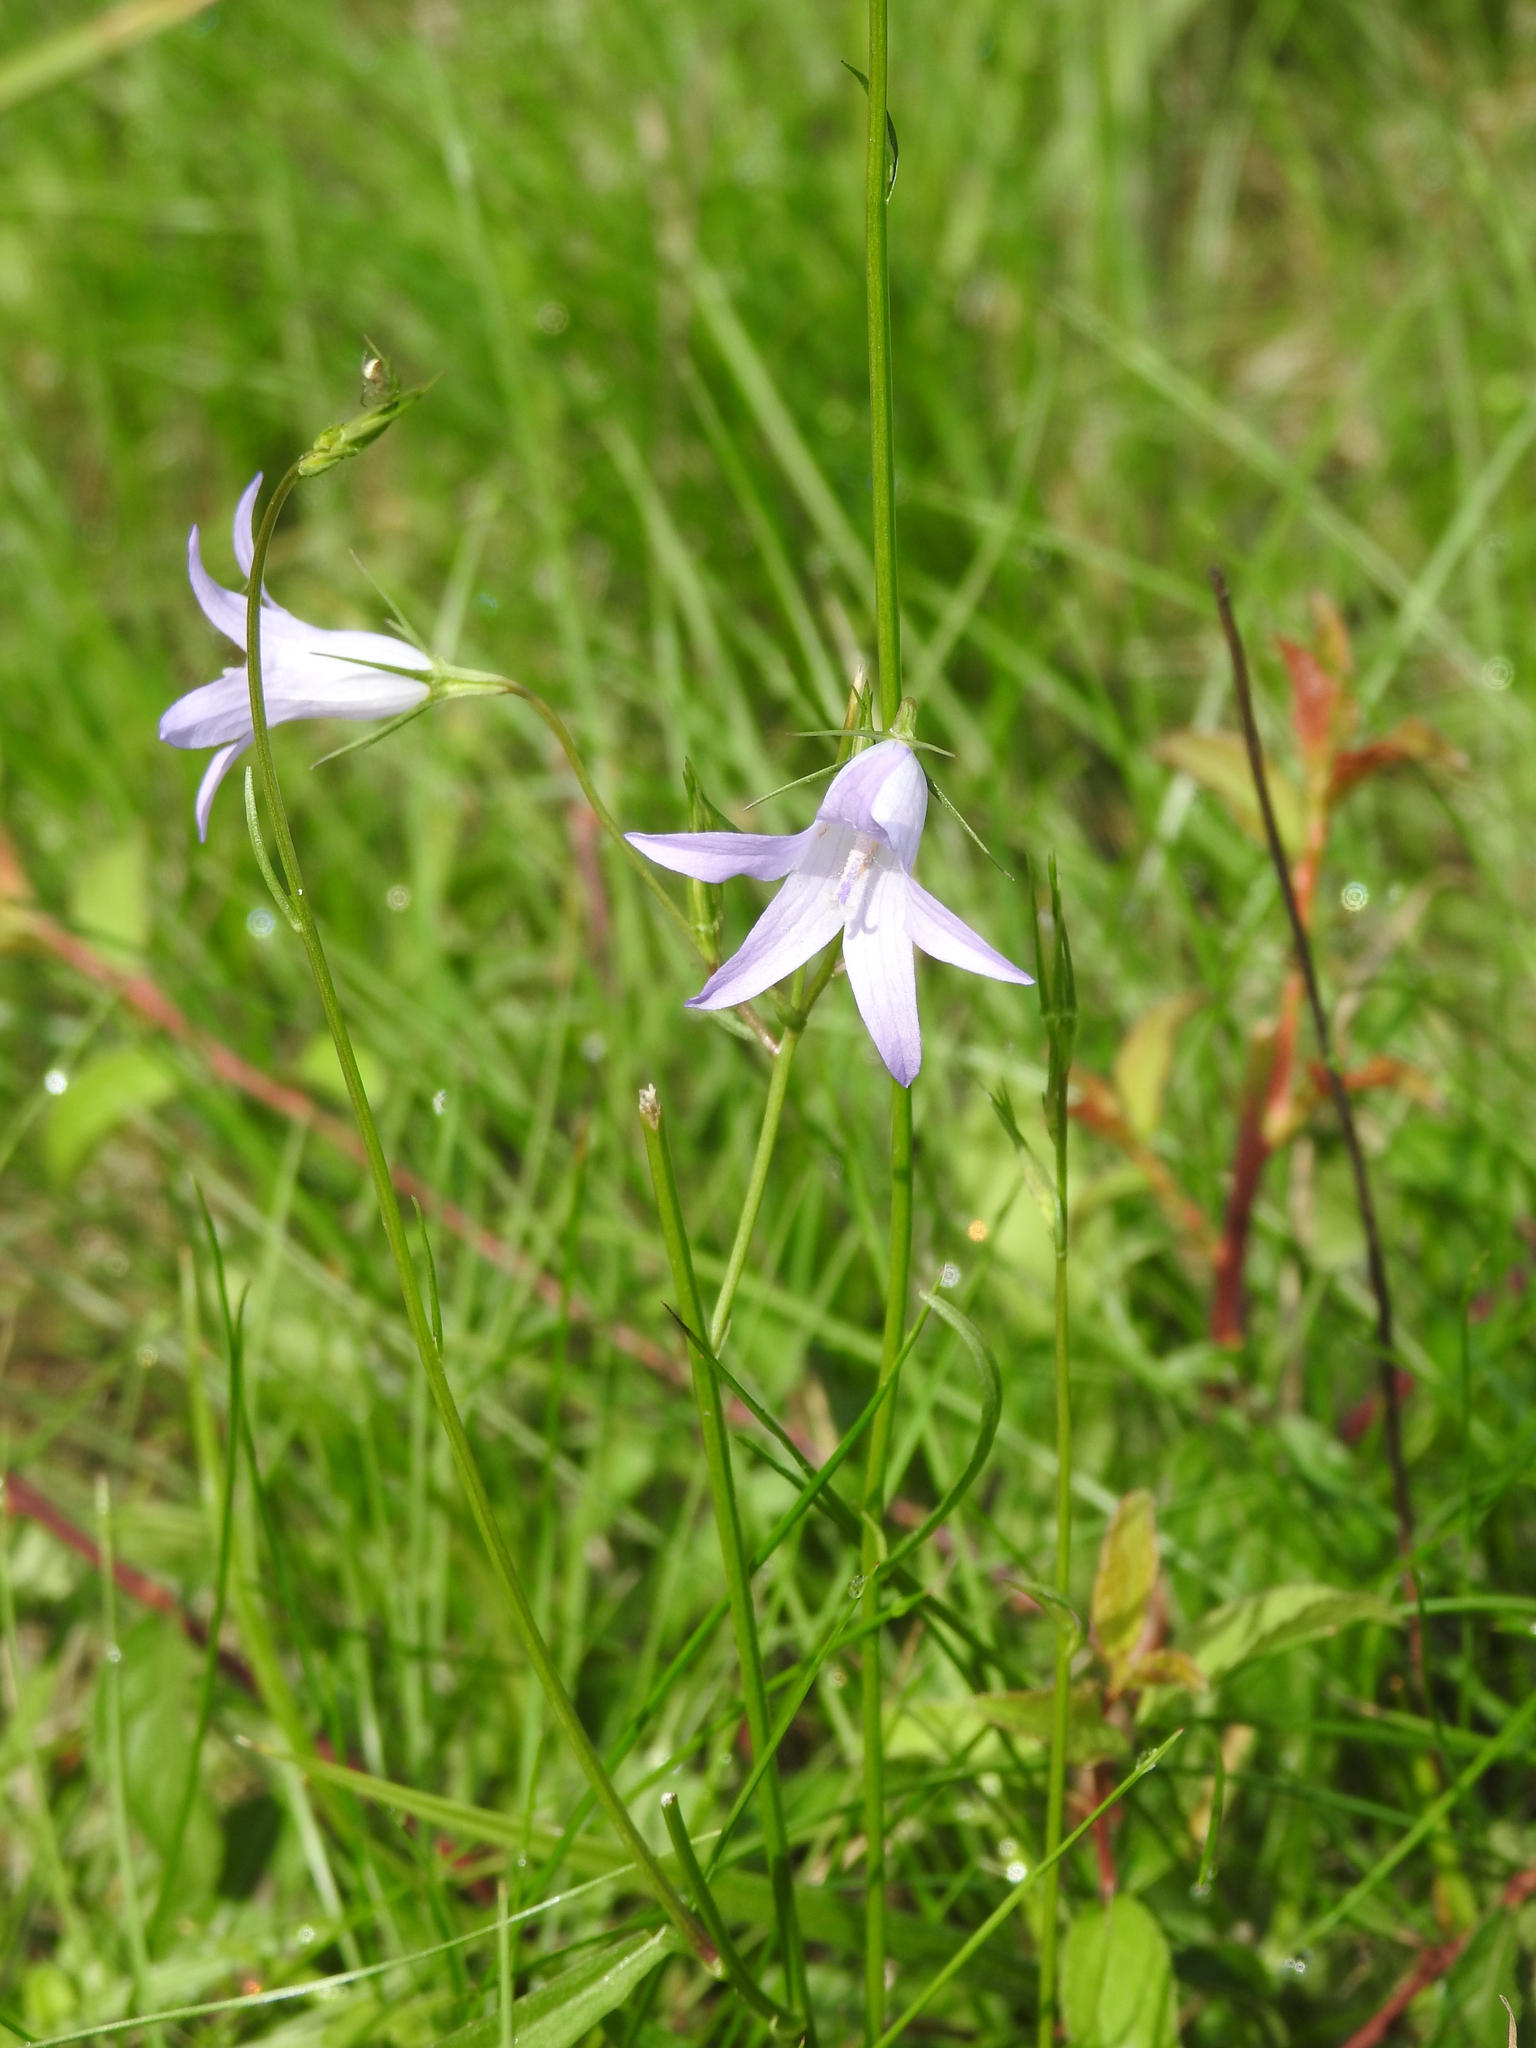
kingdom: Plantae
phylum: Tracheophyta
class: Magnoliopsida
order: Asterales
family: Campanulaceae
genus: Campanula
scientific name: Campanula rapunculus
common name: Rampion bellflower
